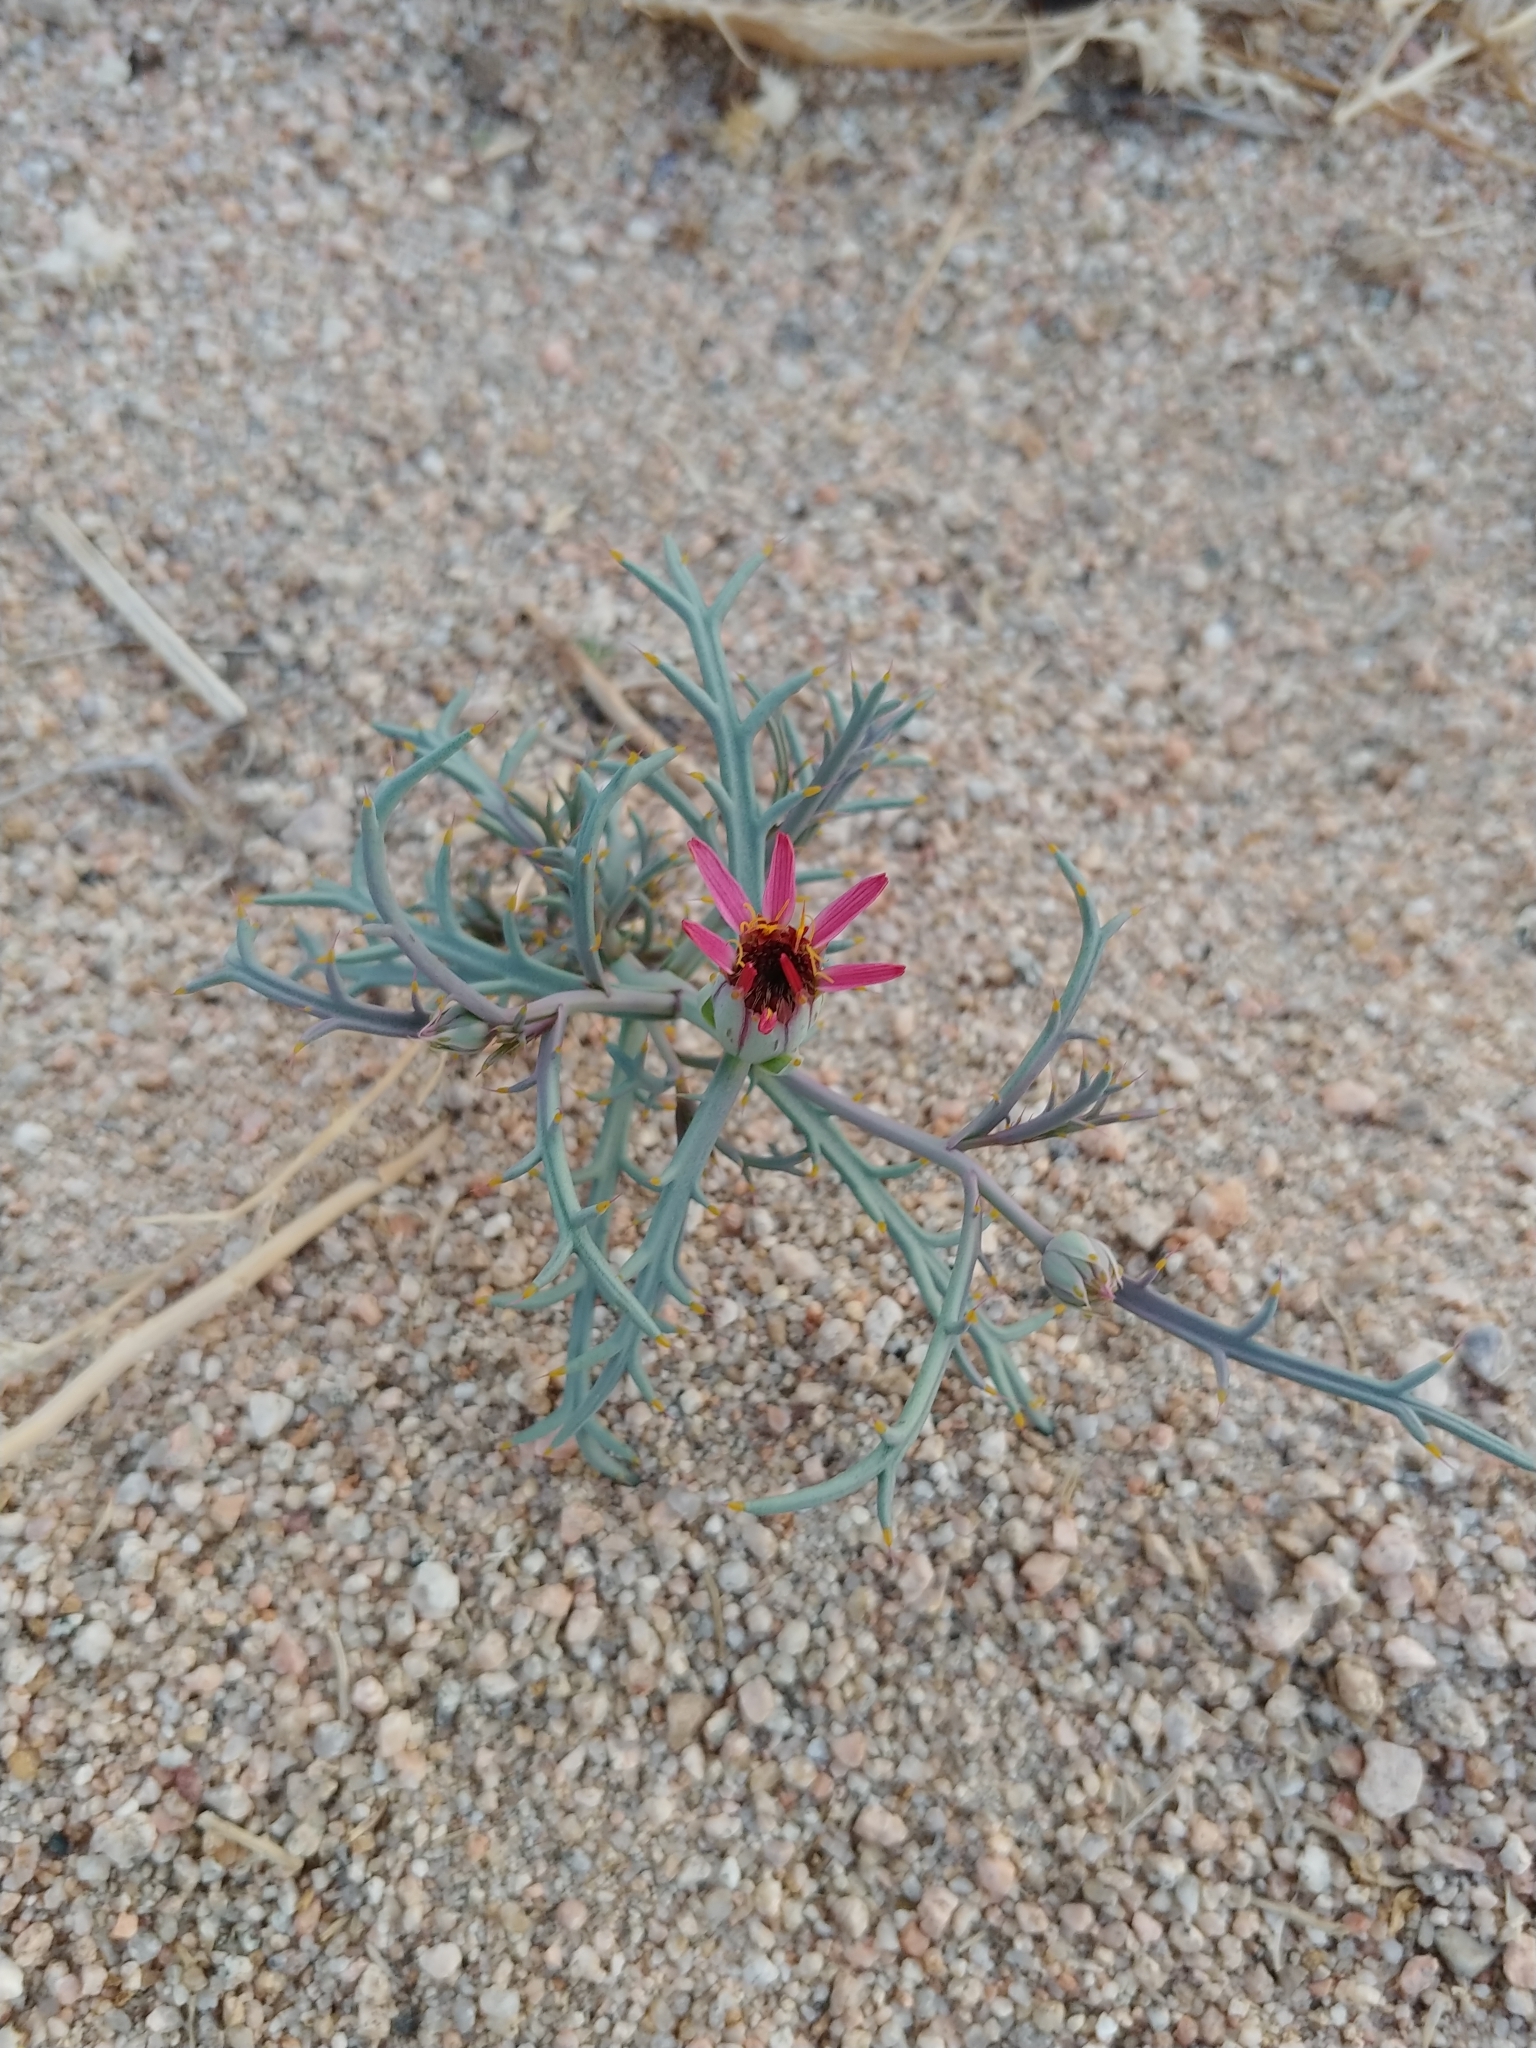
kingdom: Plantae
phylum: Tracheophyta
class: Magnoliopsida
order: Asterales
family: Asteraceae
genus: Nicolletia
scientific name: Nicolletia occidentalis
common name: Hole-in-the-sand-plant
